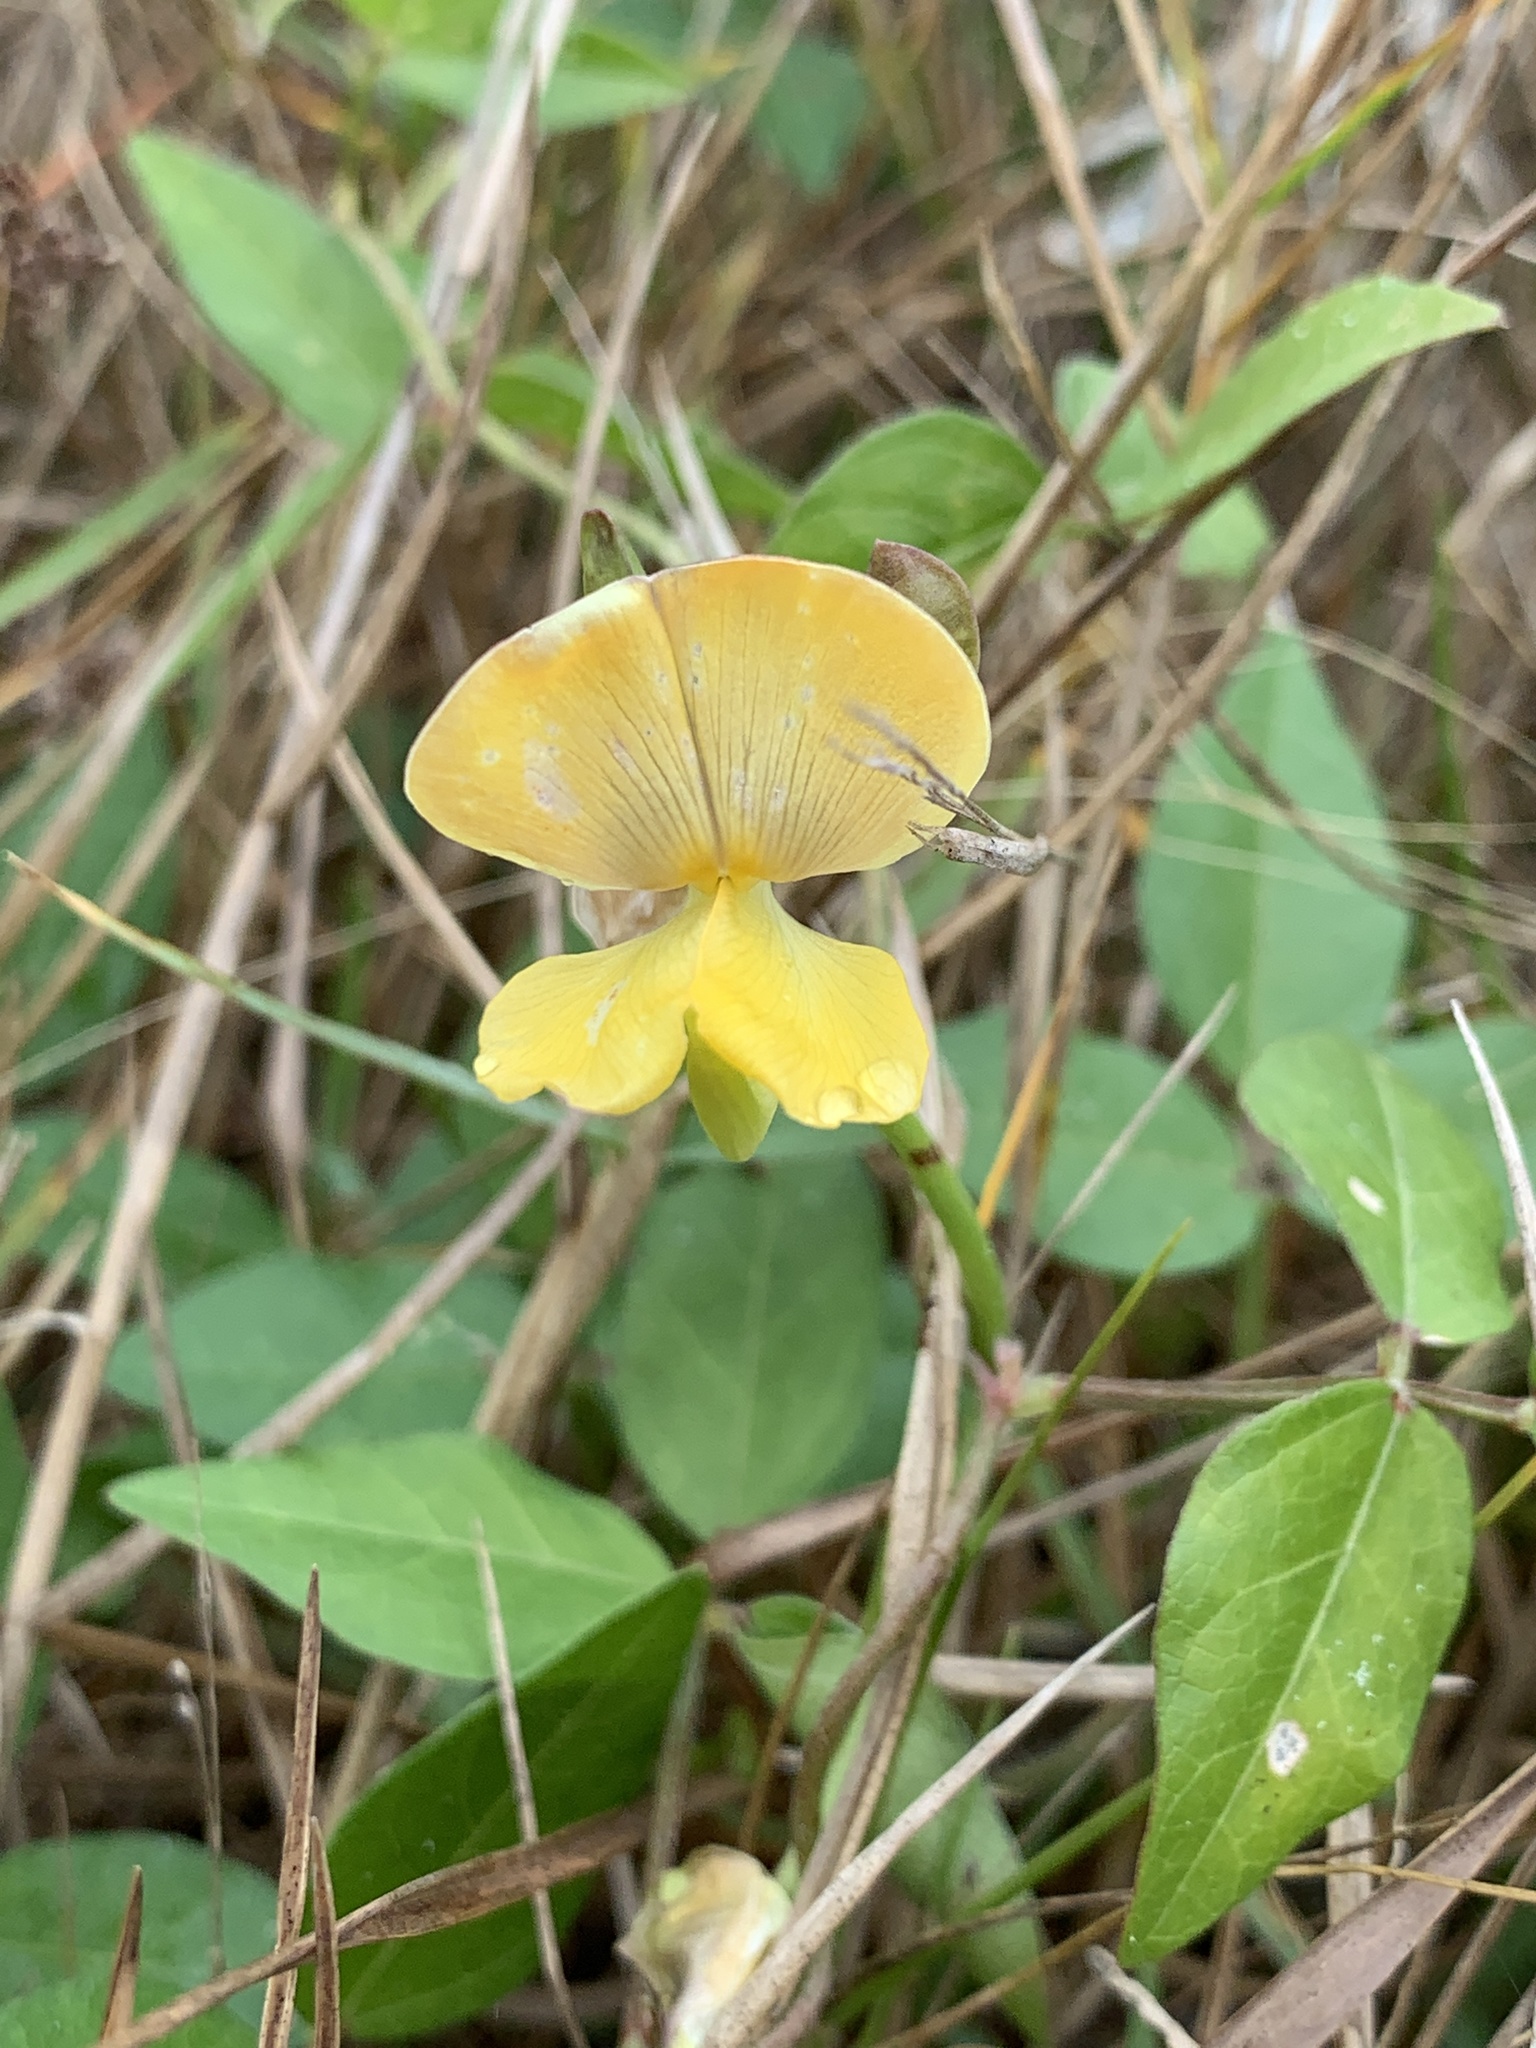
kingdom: Plantae
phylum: Tracheophyta
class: Magnoliopsida
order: Fabales
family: Fabaceae
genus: Vigna
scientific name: Vigna luteola
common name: Hairypod cowpea
